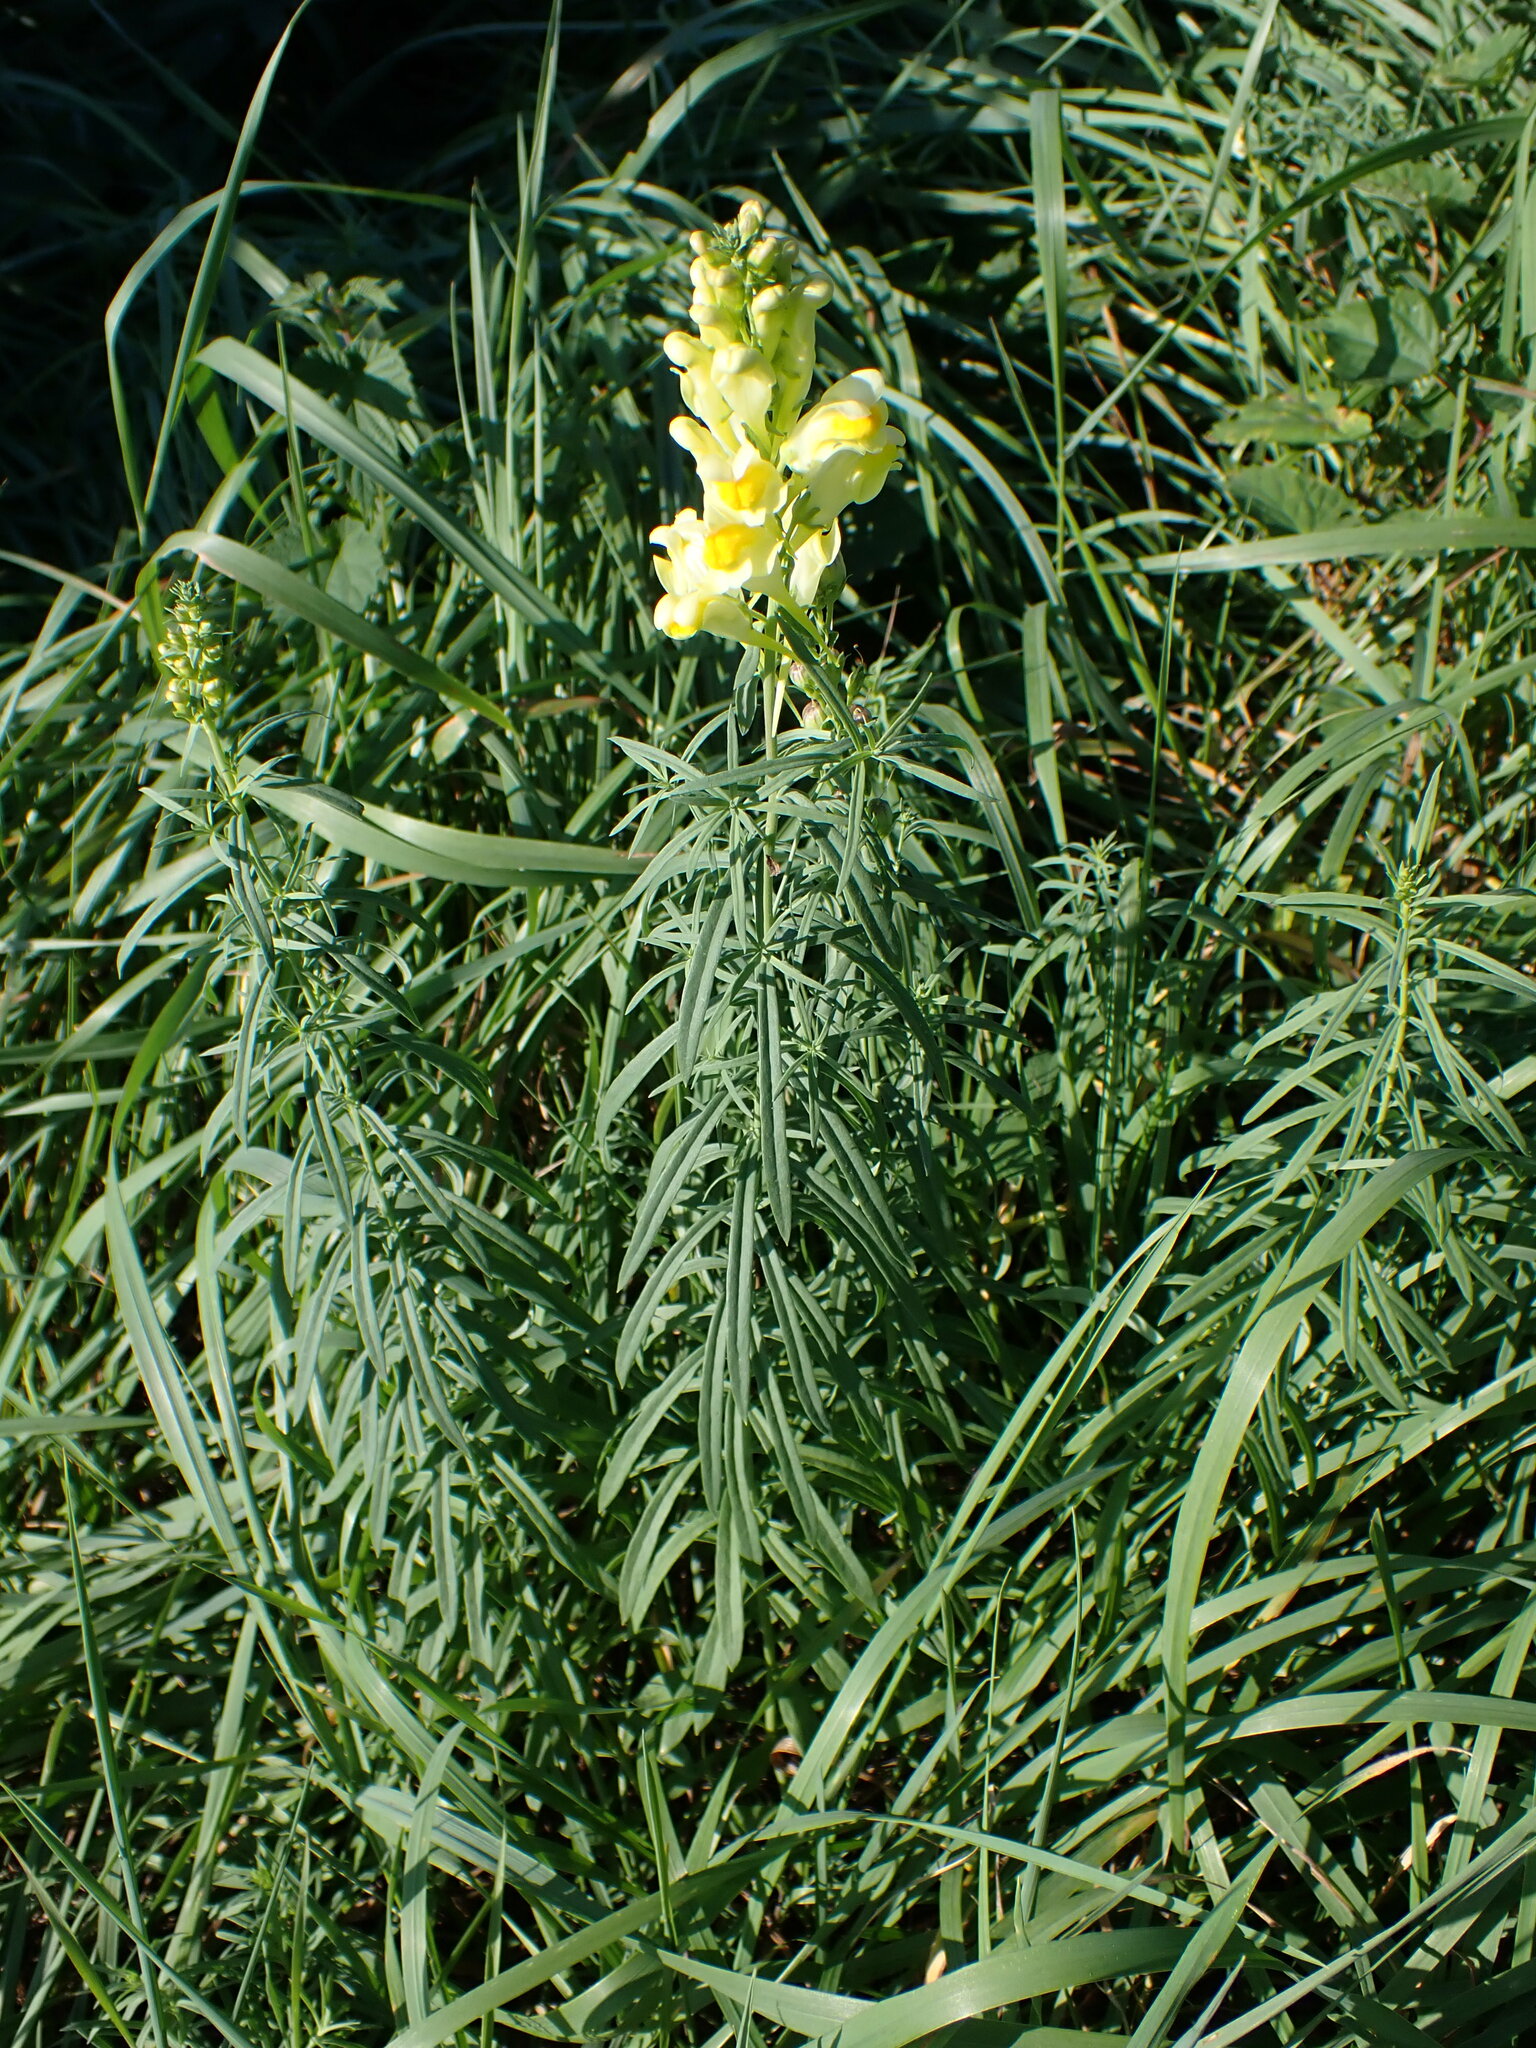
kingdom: Plantae
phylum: Tracheophyta
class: Magnoliopsida
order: Lamiales
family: Plantaginaceae
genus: Linaria
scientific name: Linaria vulgaris
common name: Butter and eggs
